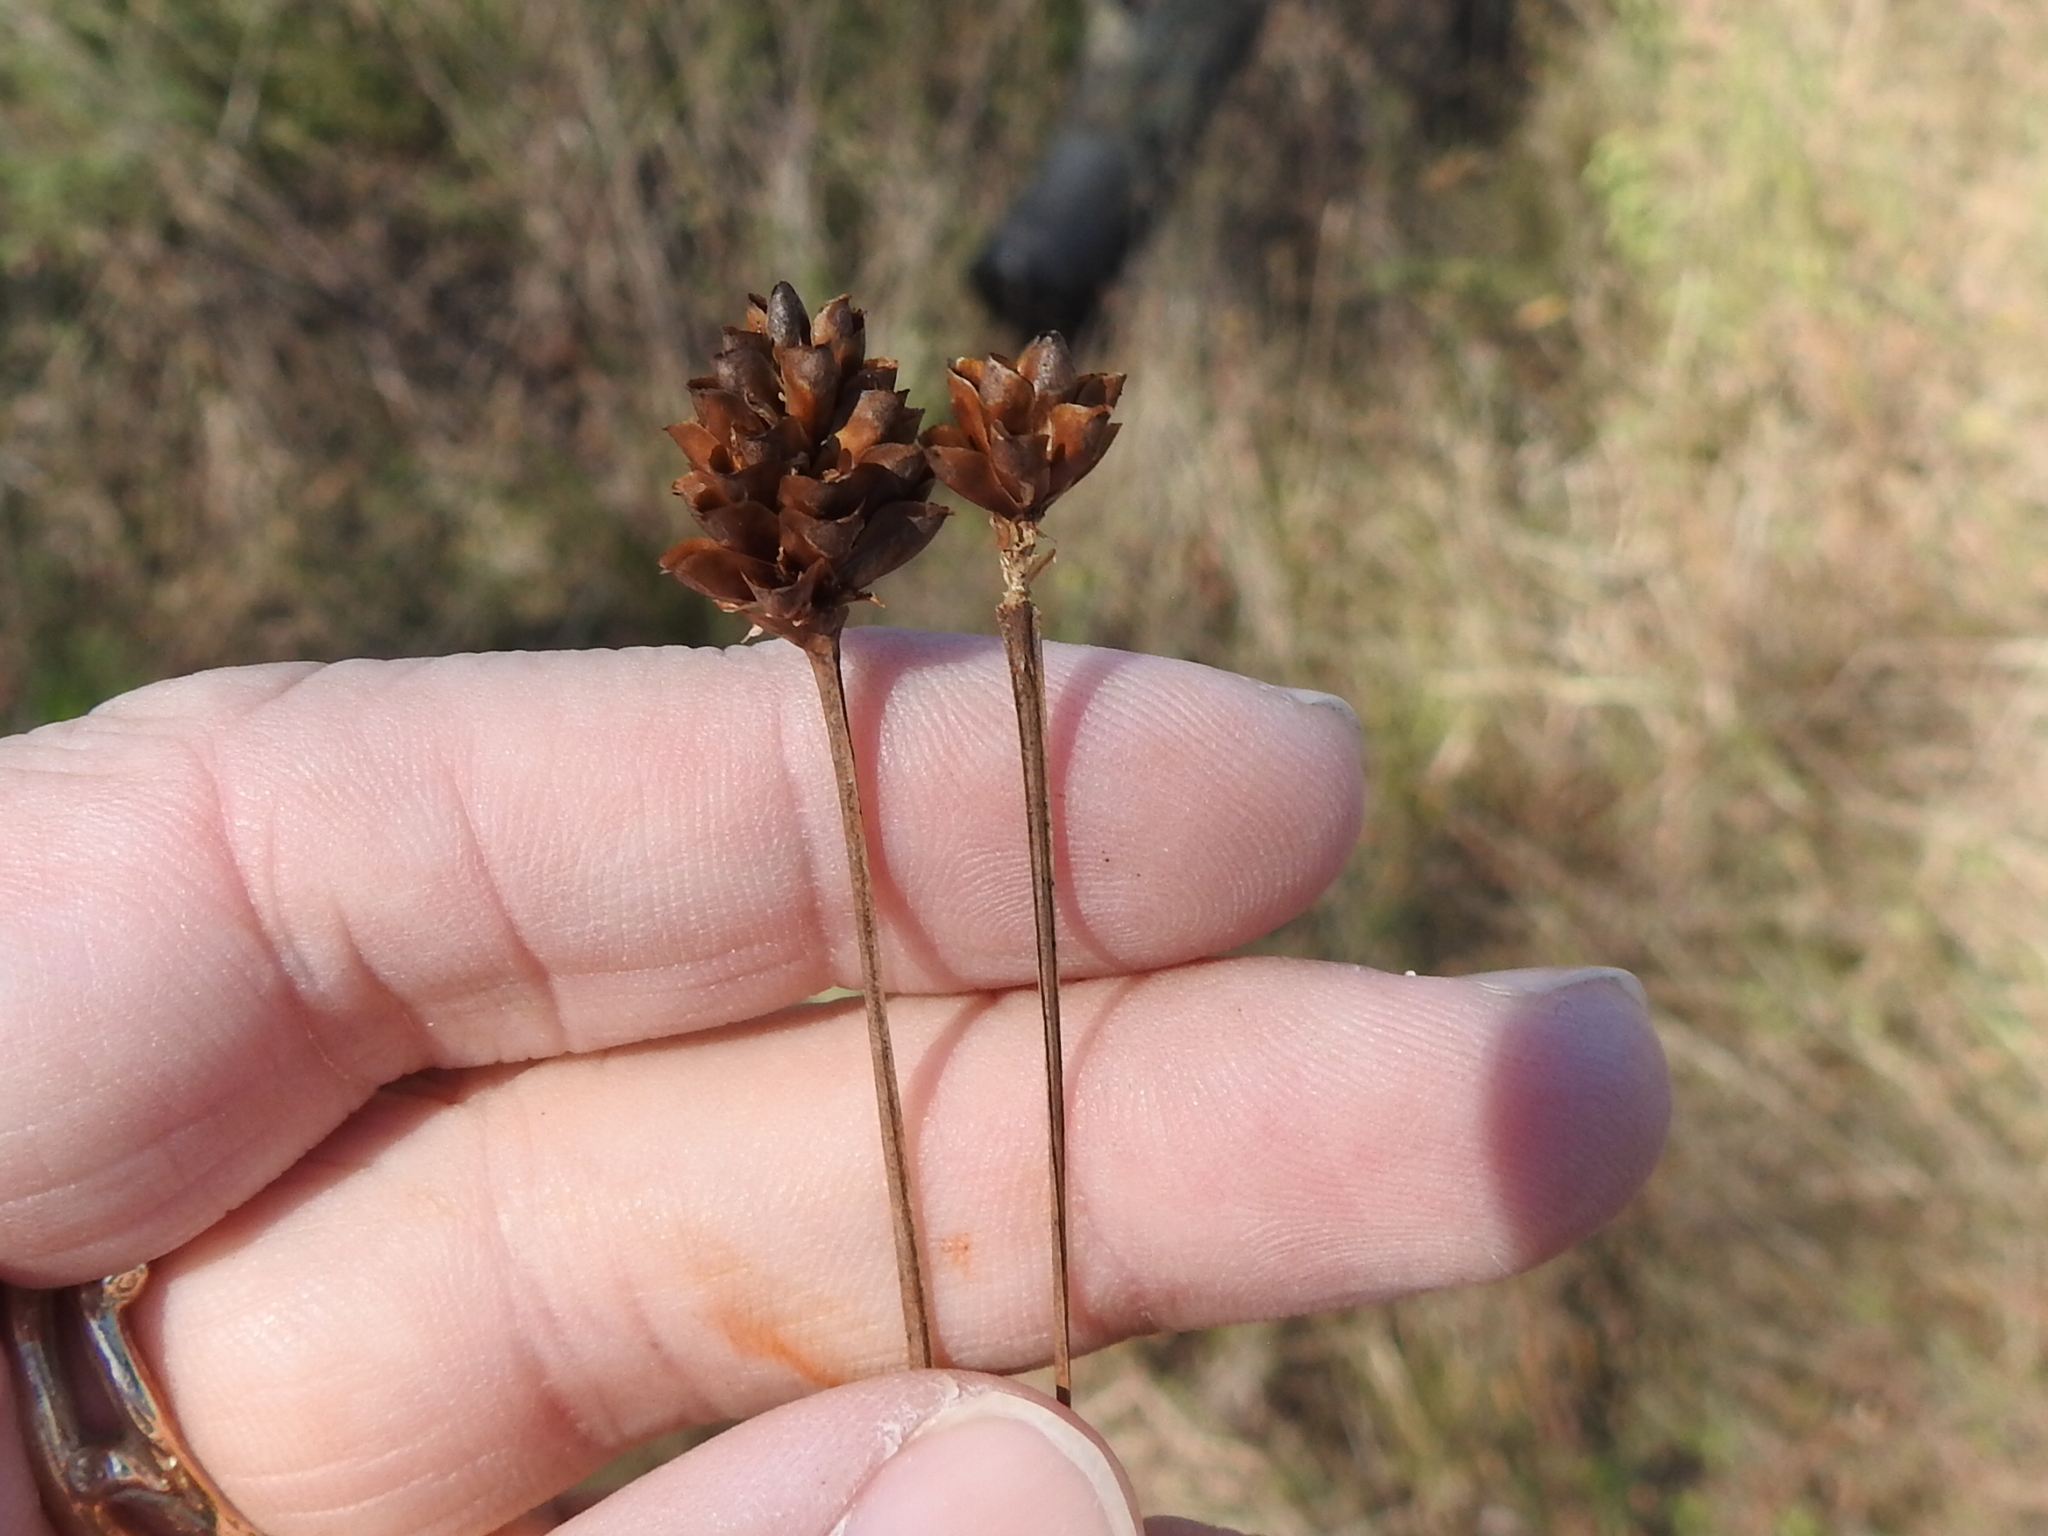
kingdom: Plantae
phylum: Tracheophyta
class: Liliopsida
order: Poales
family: Xyridaceae
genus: Xyris
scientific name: Xyris jupicai
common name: Richard's yelloweyed grass
